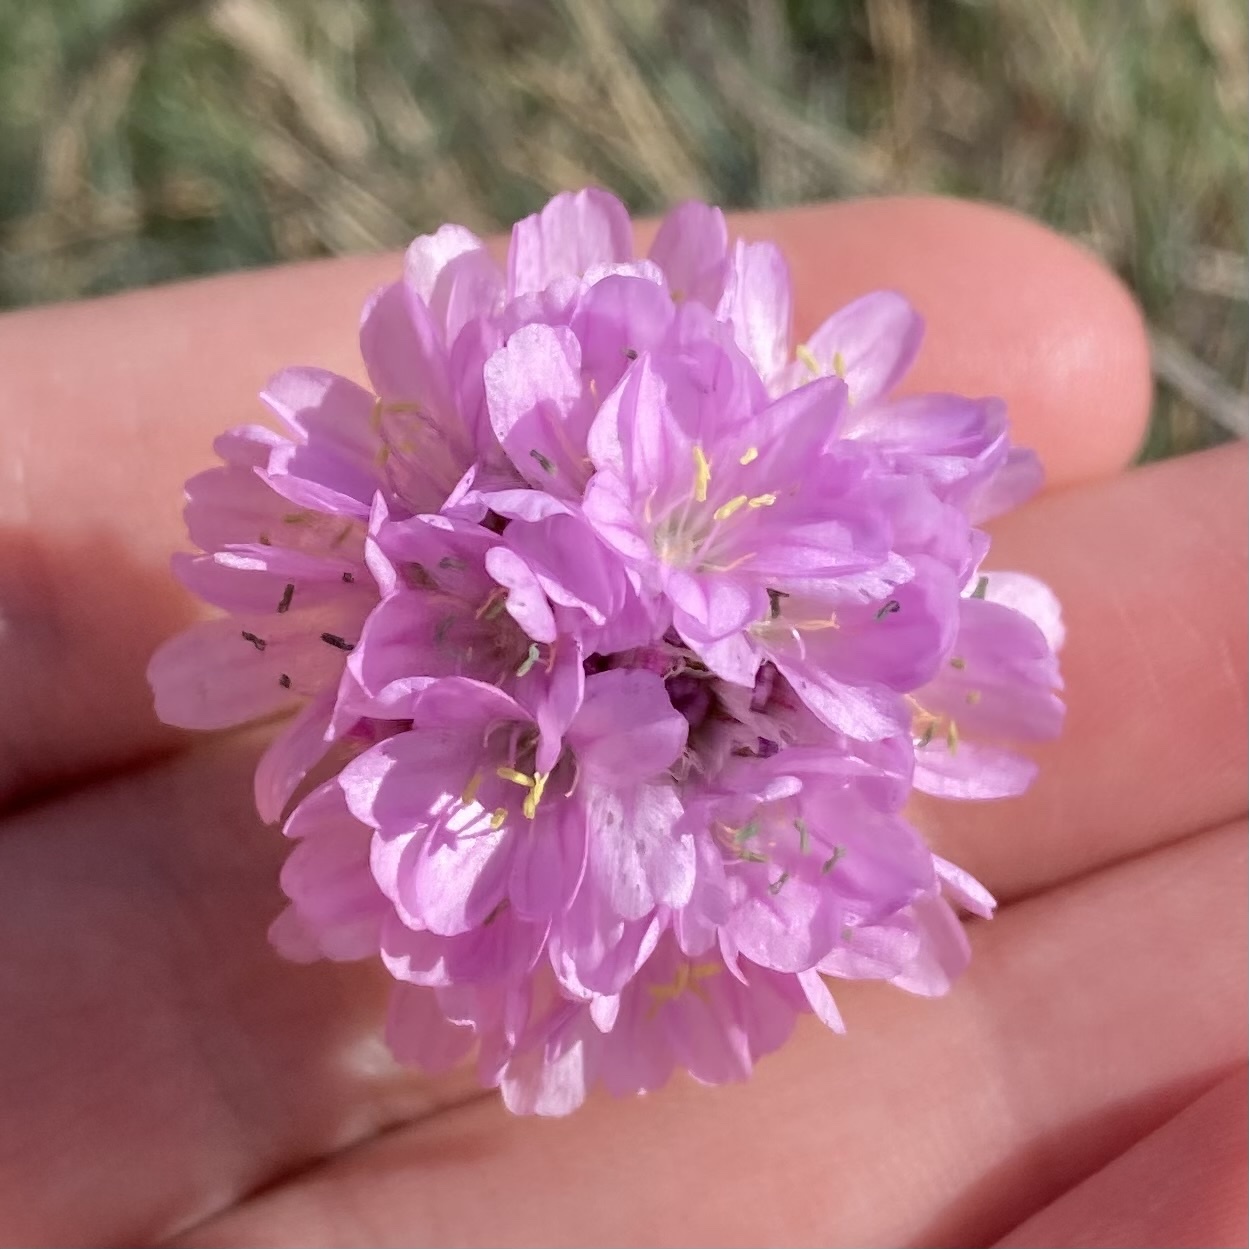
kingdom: Plantae
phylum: Tracheophyta
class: Magnoliopsida
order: Caryophyllales
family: Plumbaginaceae
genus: Armeria
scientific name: Armeria maritima
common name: Thrift
